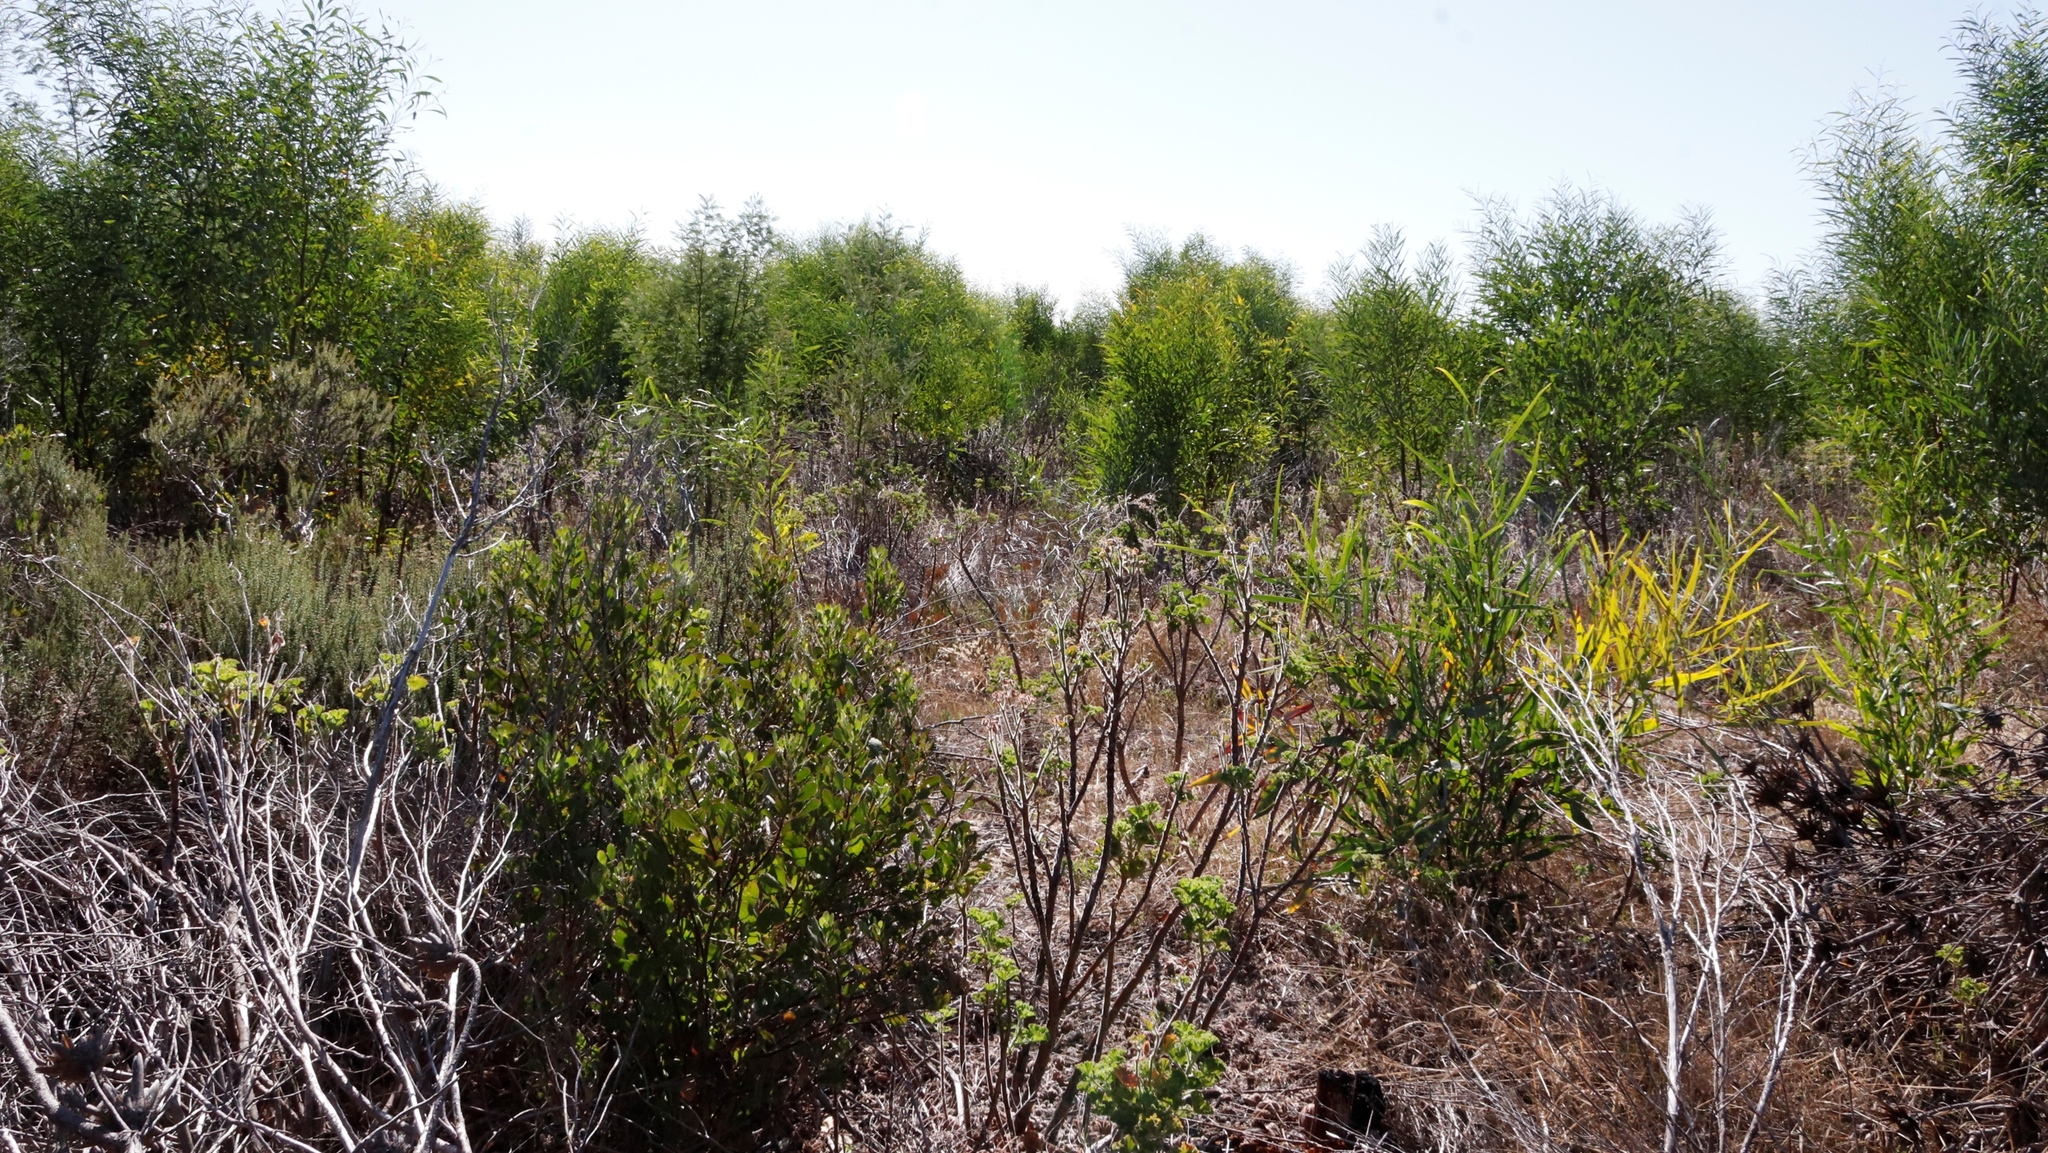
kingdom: Plantae
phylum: Tracheophyta
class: Magnoliopsida
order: Asterales
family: Asteraceae
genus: Osteospermum
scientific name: Osteospermum moniliferum
